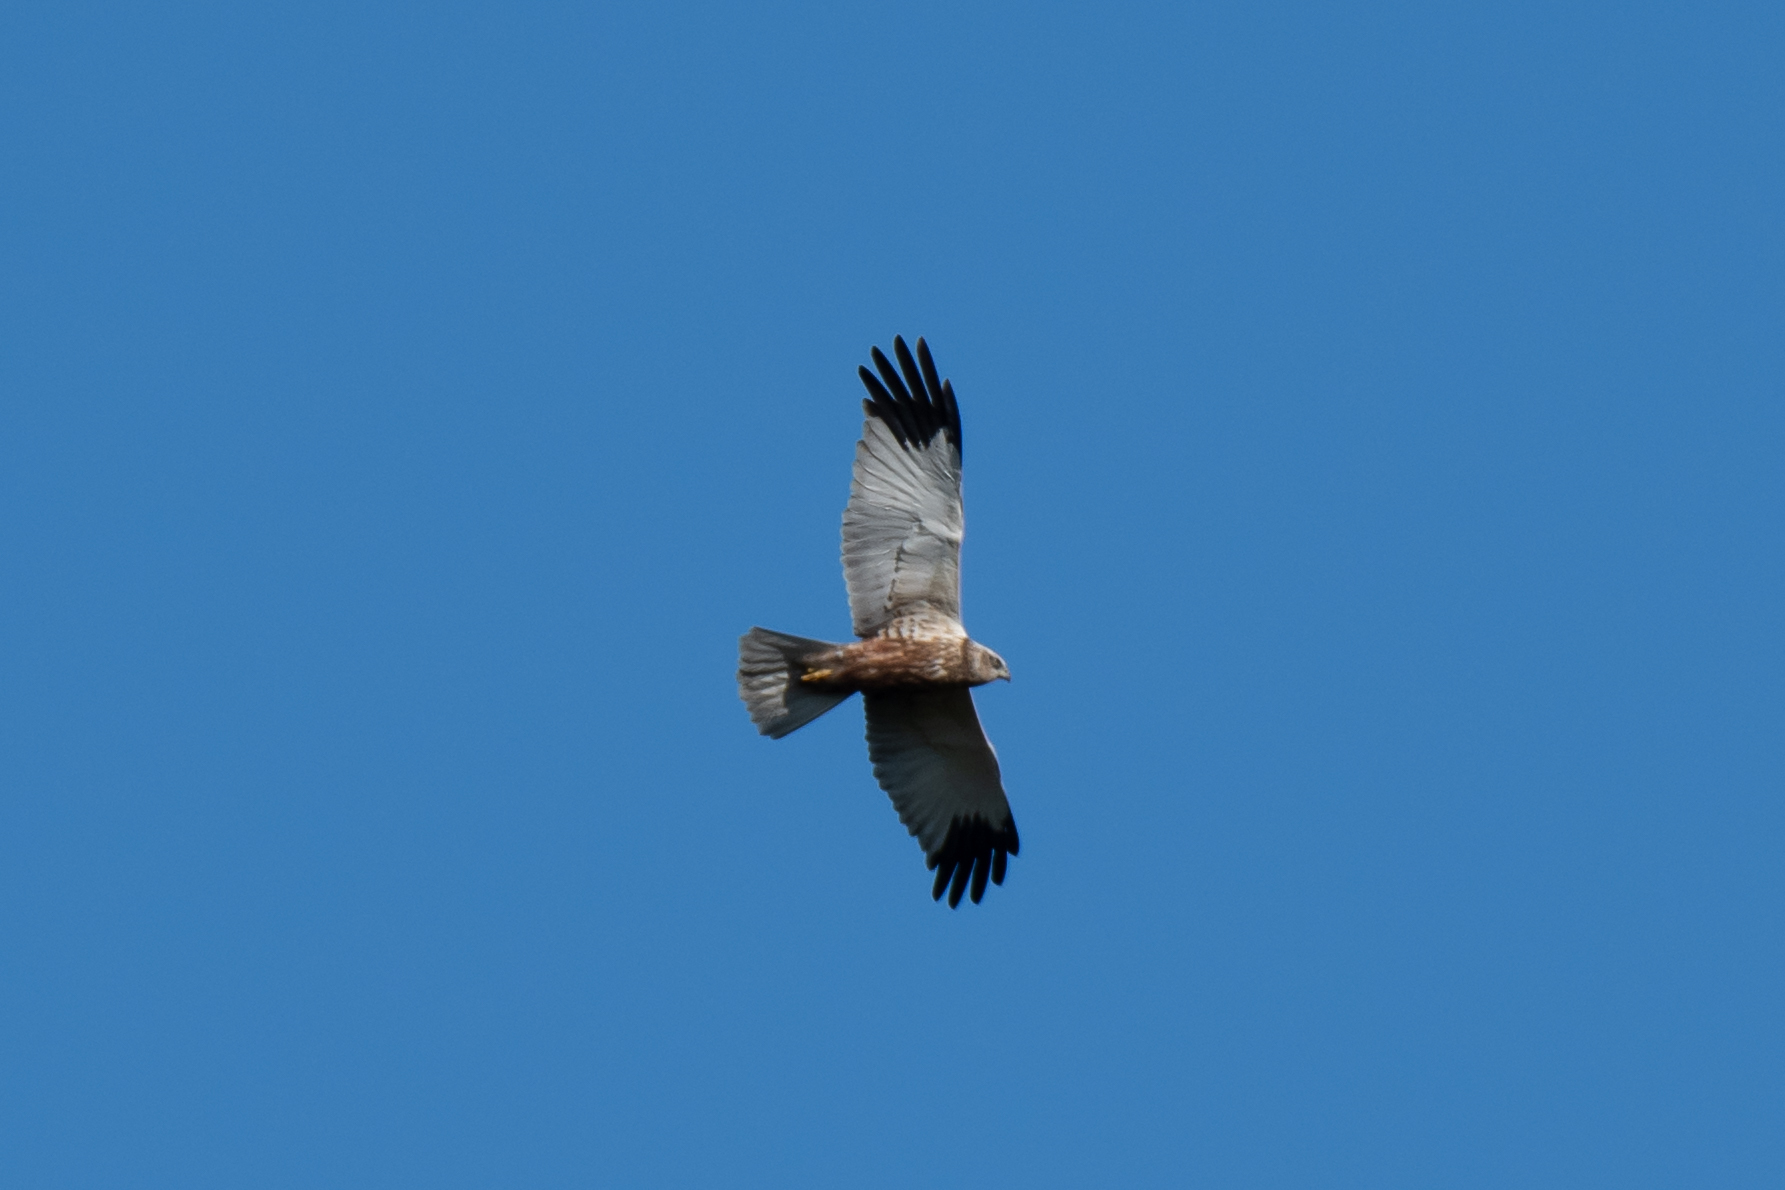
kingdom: Animalia
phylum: Chordata
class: Aves
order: Accipitriformes
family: Accipitridae
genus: Circus
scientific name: Circus aeruginosus
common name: Western marsh harrier
